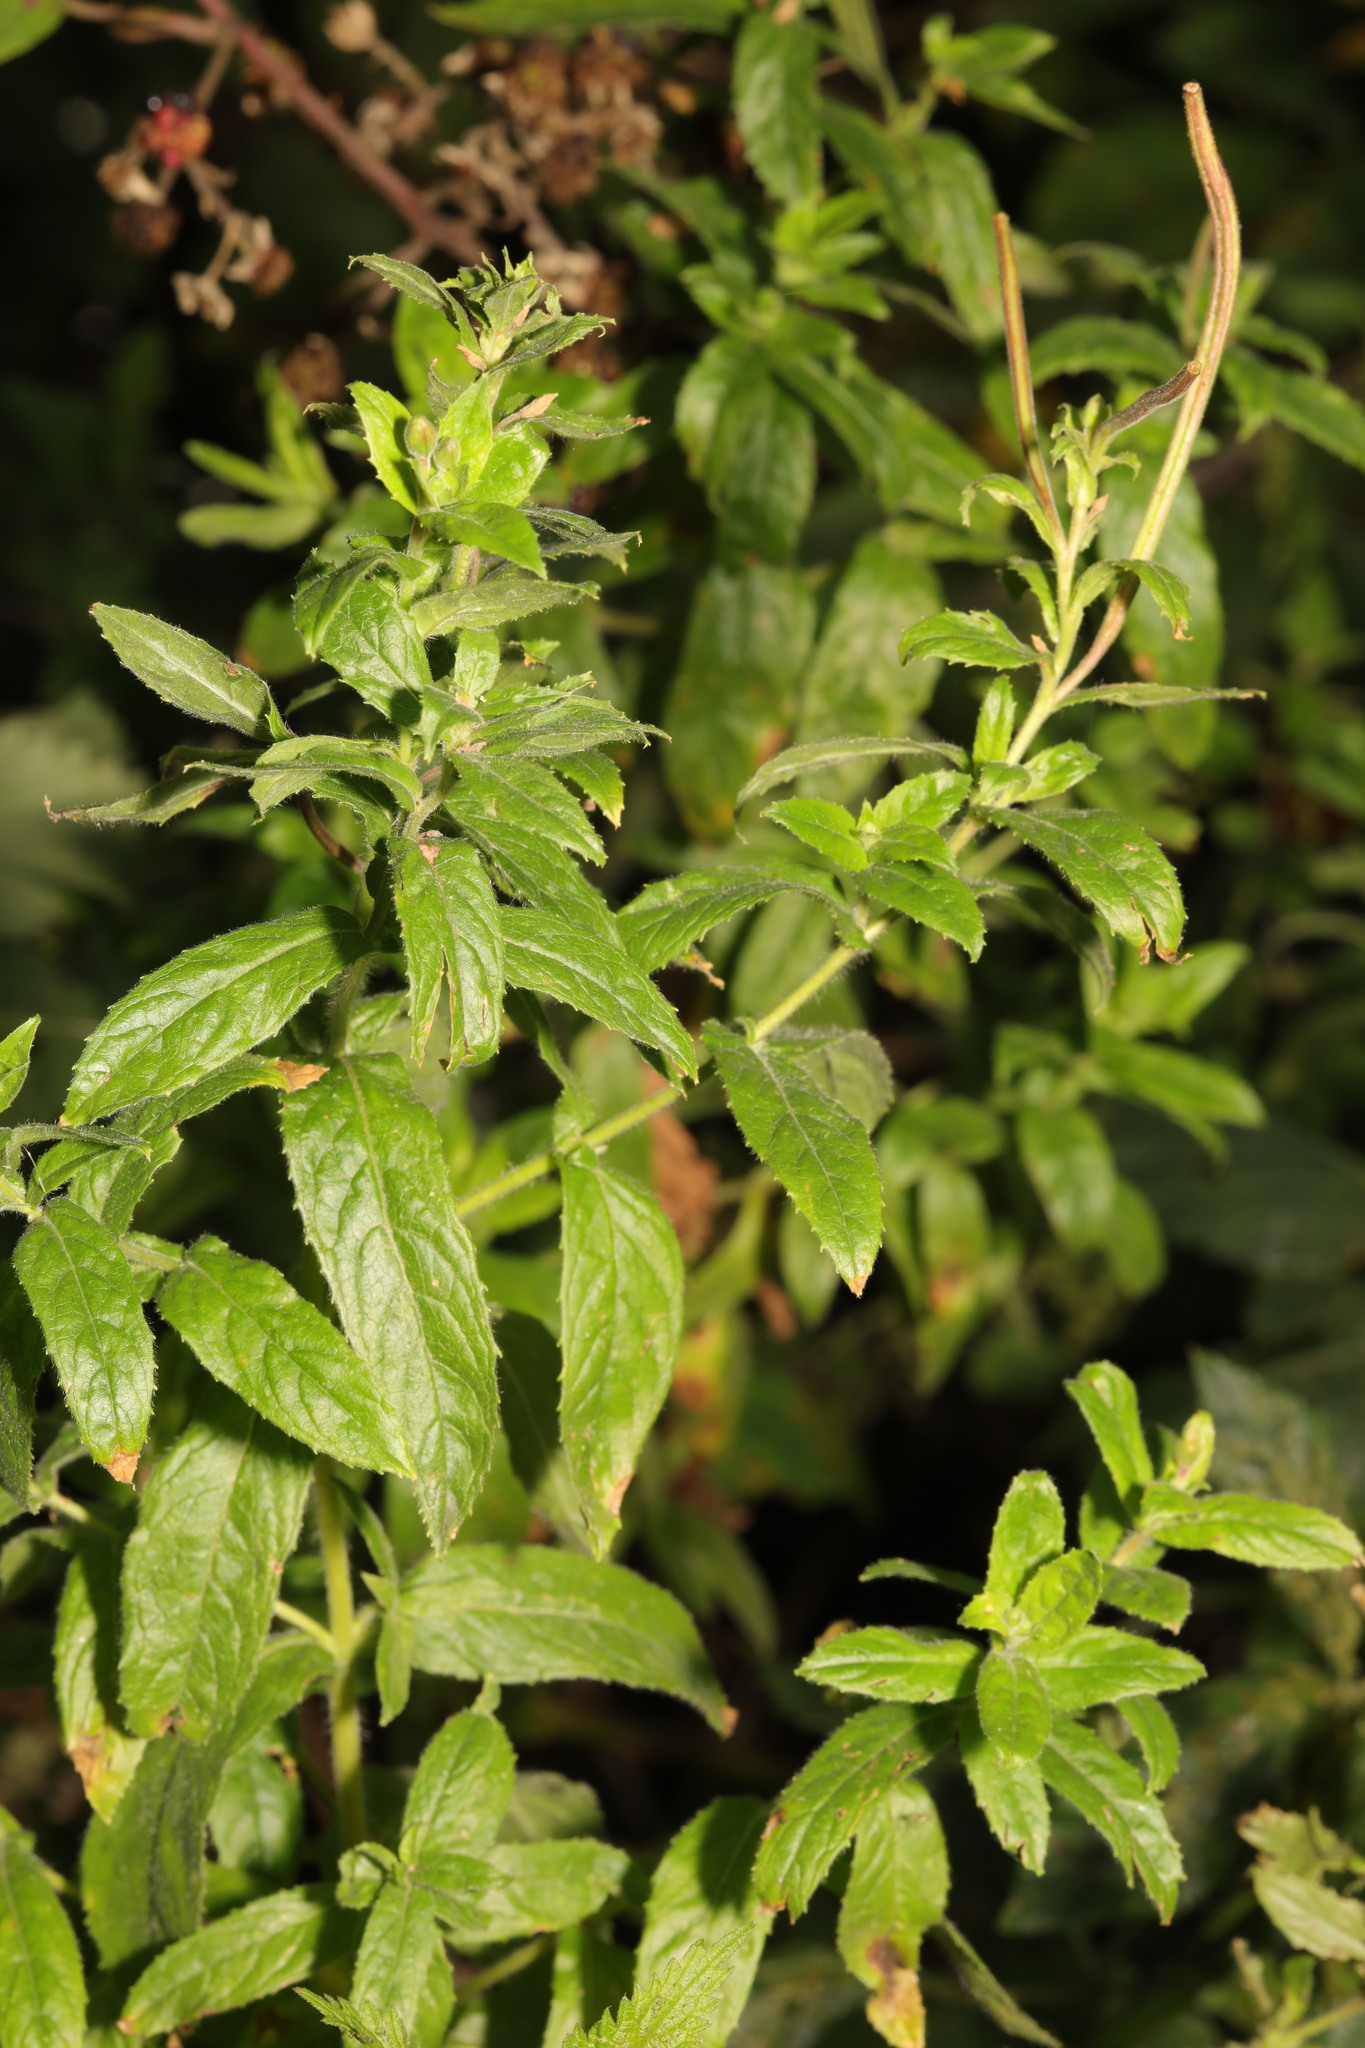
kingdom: Plantae
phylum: Tracheophyta
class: Magnoliopsida
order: Myrtales
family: Onagraceae
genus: Epilobium
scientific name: Epilobium hirsutum
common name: Great willowherb
